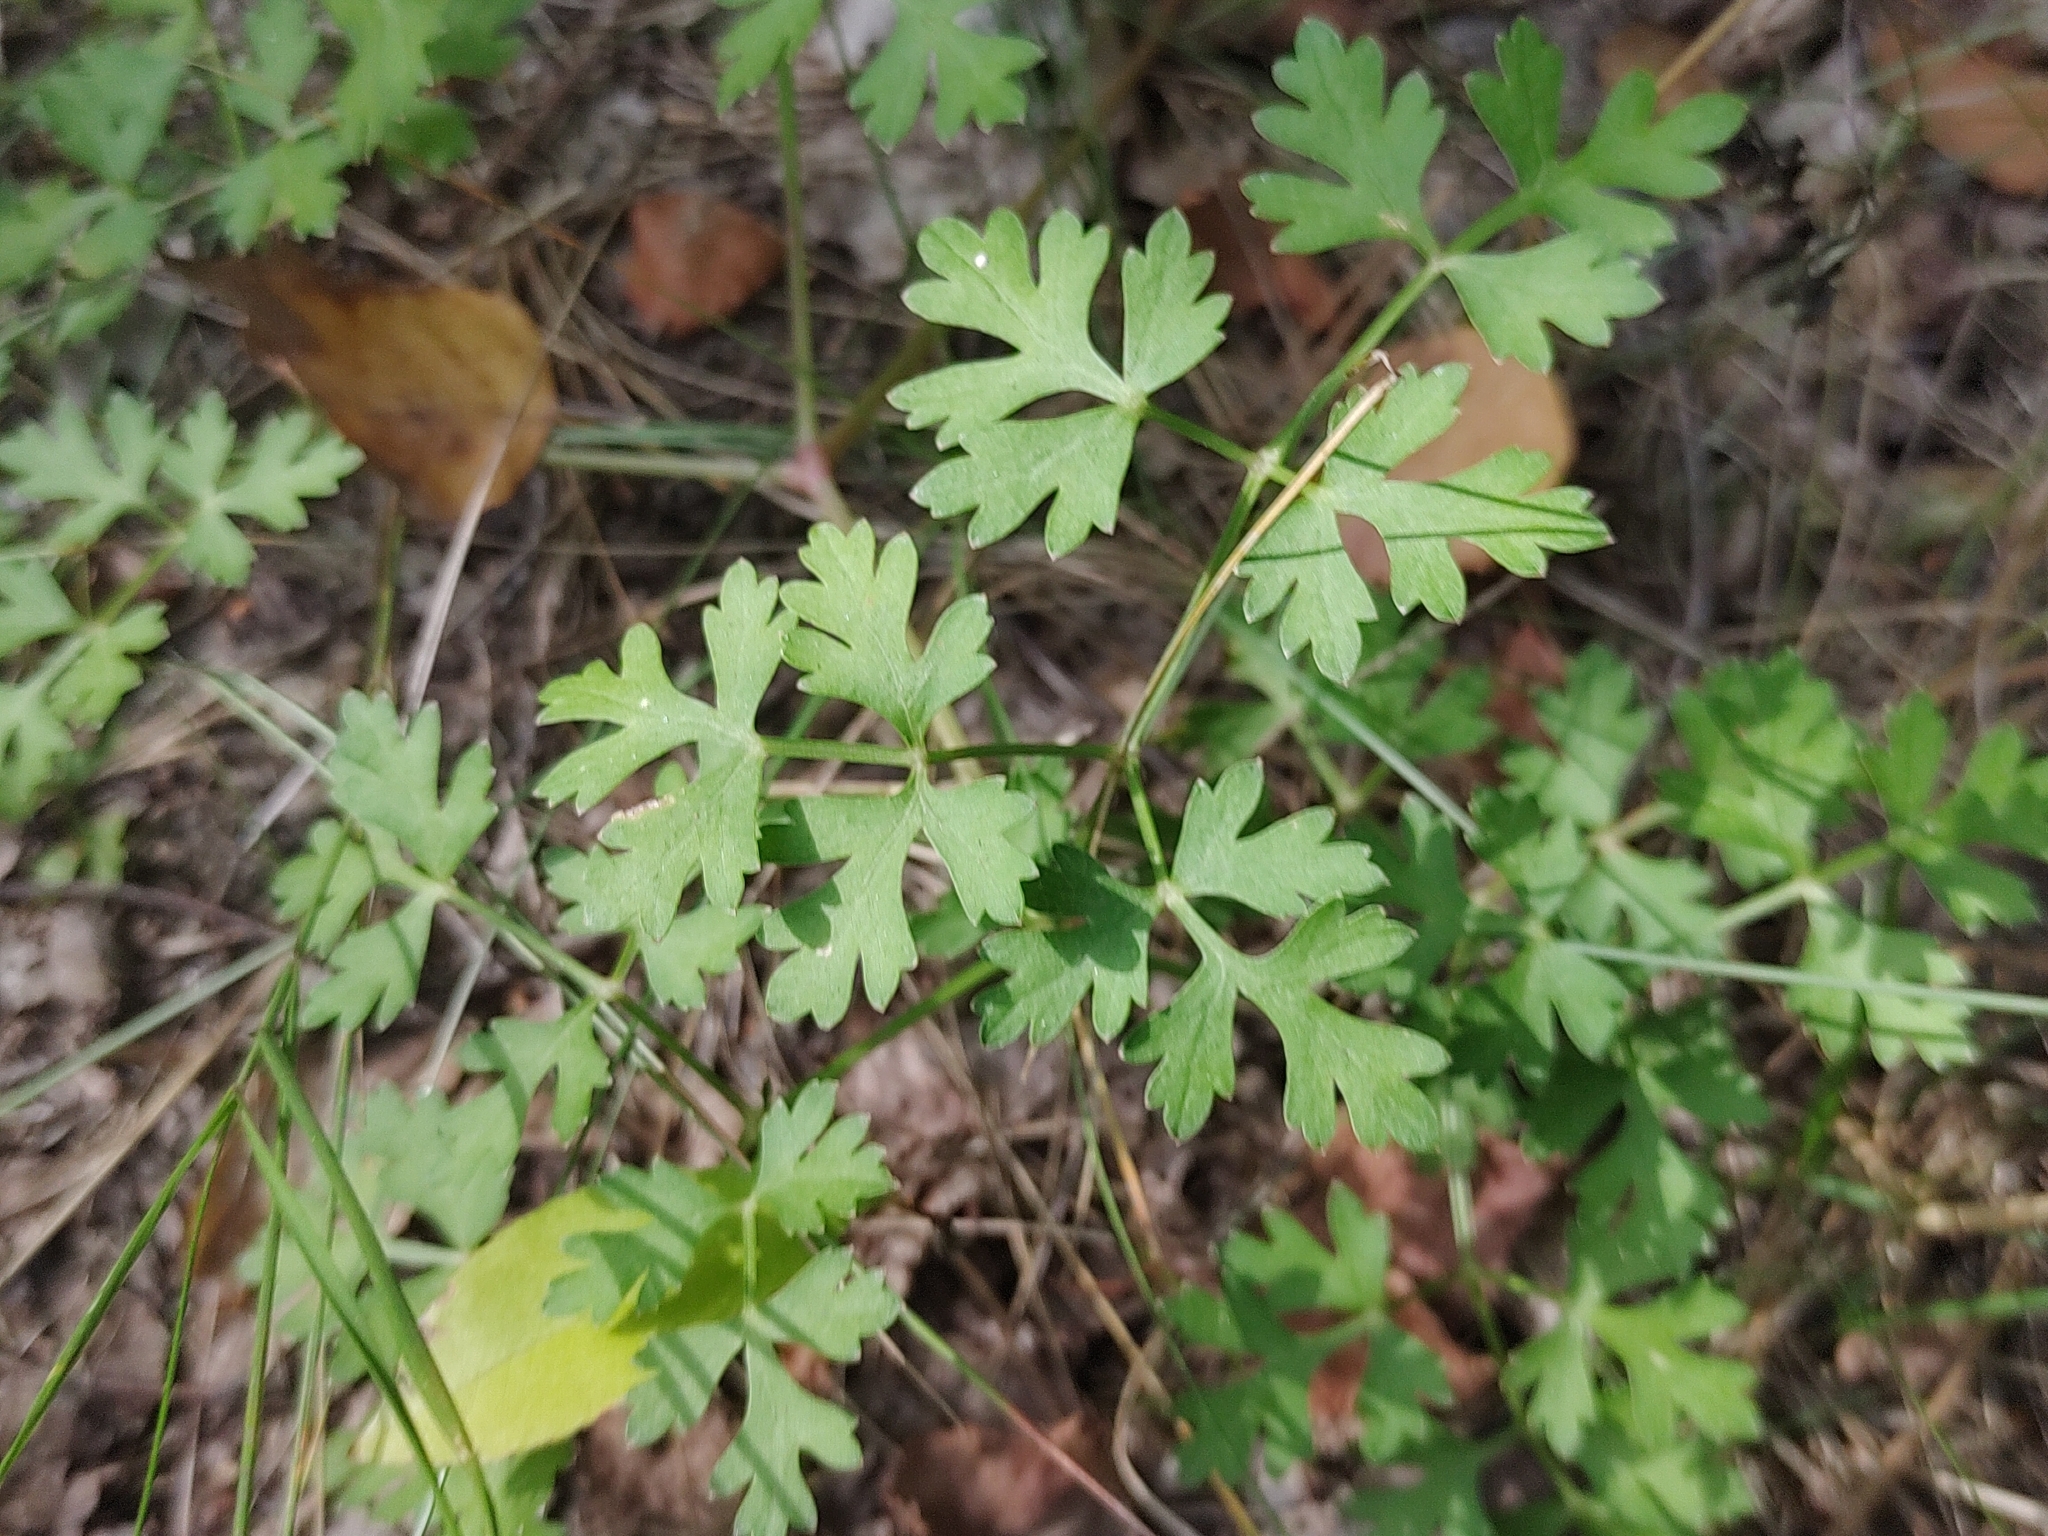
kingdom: Plantae
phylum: Tracheophyta
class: Magnoliopsida
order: Apiales
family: Apiaceae
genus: Oreoselinum
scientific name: Oreoselinum nigrum
